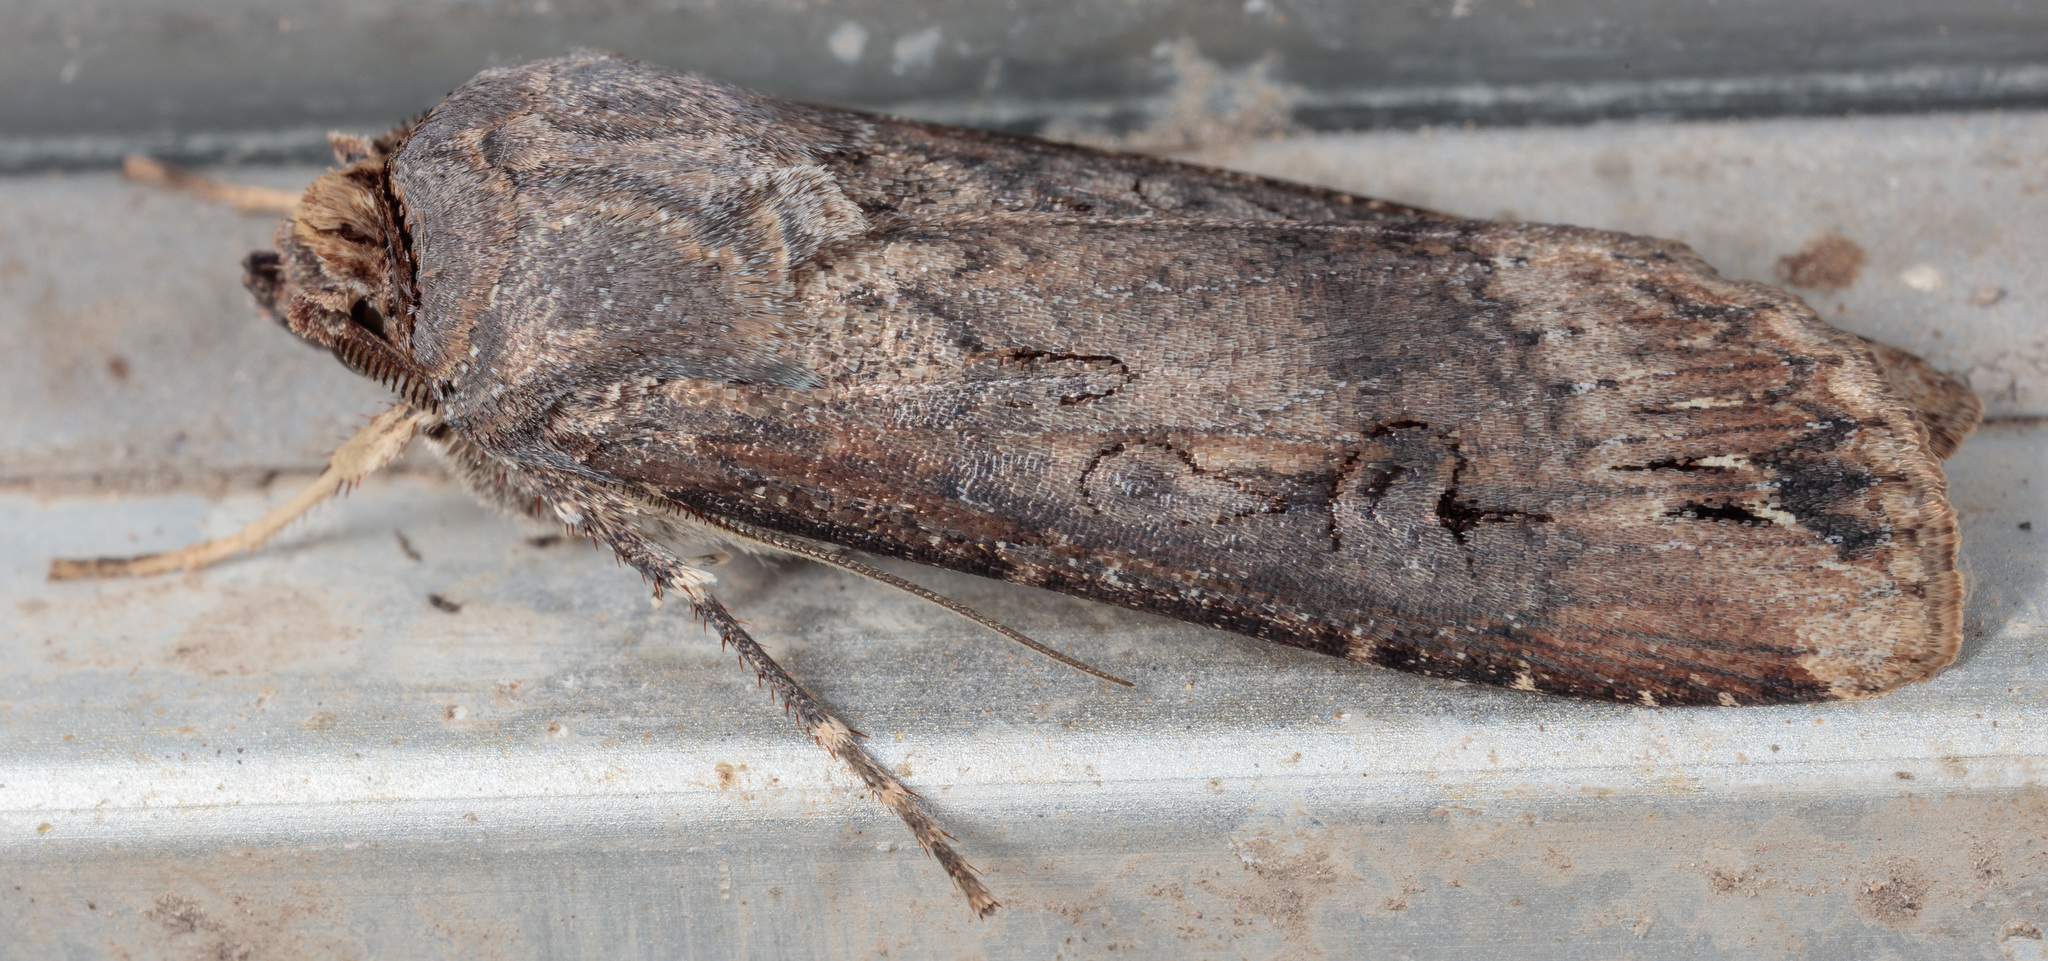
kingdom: Animalia
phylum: Arthropoda
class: Insecta
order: Lepidoptera
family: Noctuidae
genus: Agrotis
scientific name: Agrotis ipsilon
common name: Dark sword-grass
